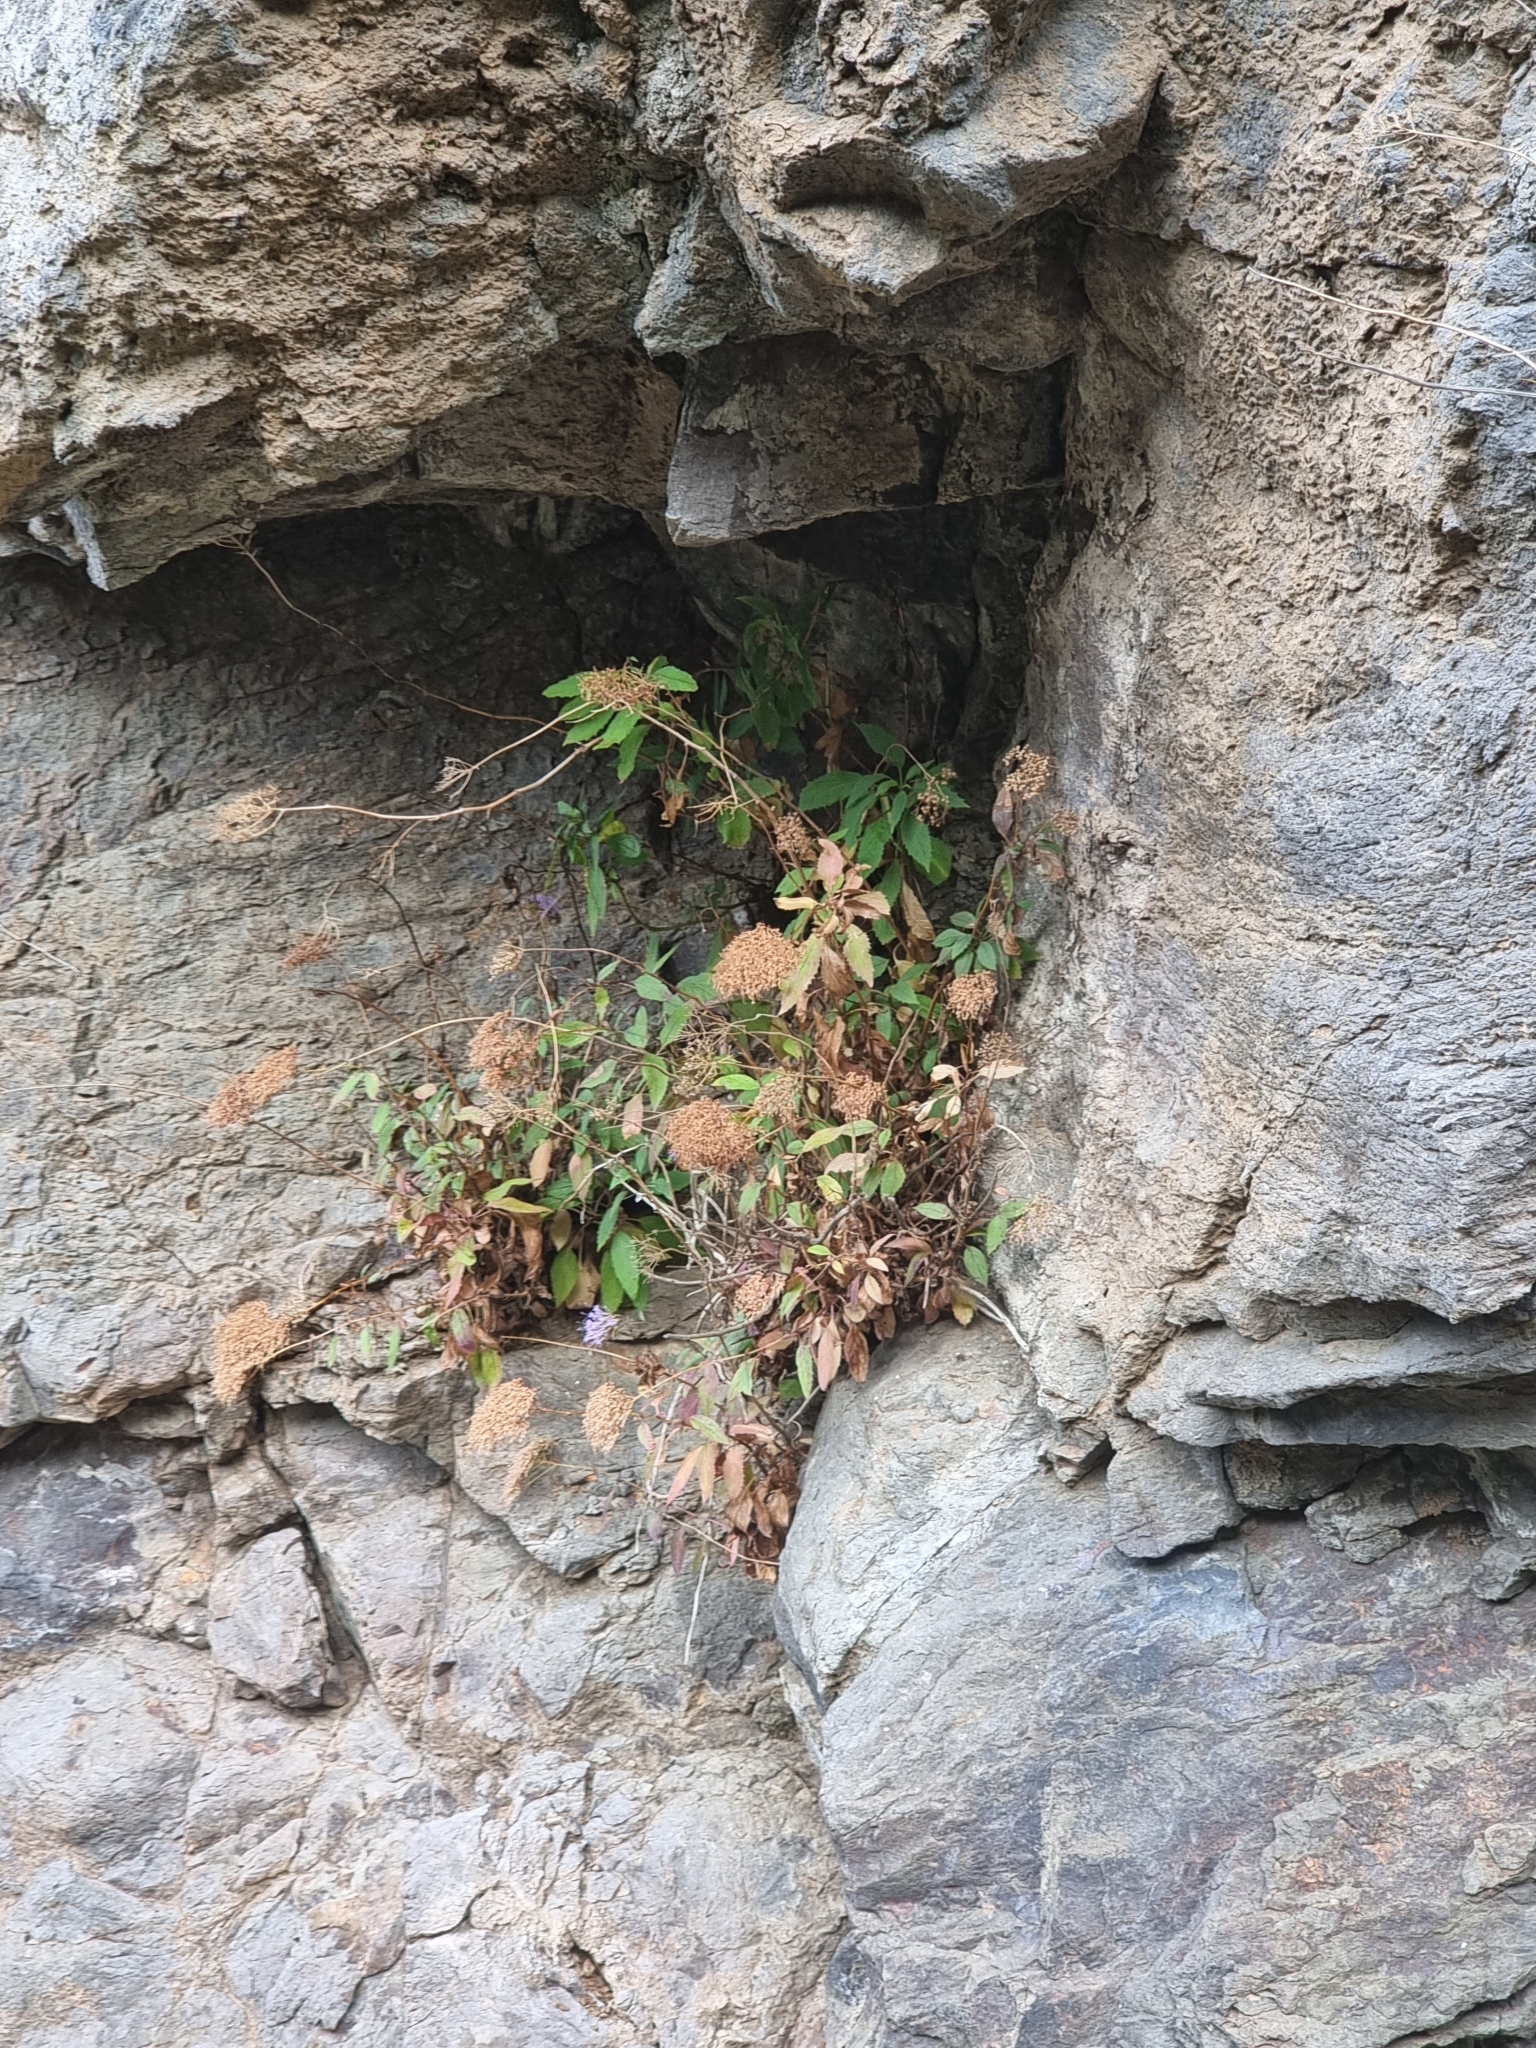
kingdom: Plantae
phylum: Tracheophyta
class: Magnoliopsida
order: Asterales
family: Campanulaceae
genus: Trachelium
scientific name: Trachelium caeruleum
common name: Throatwort
